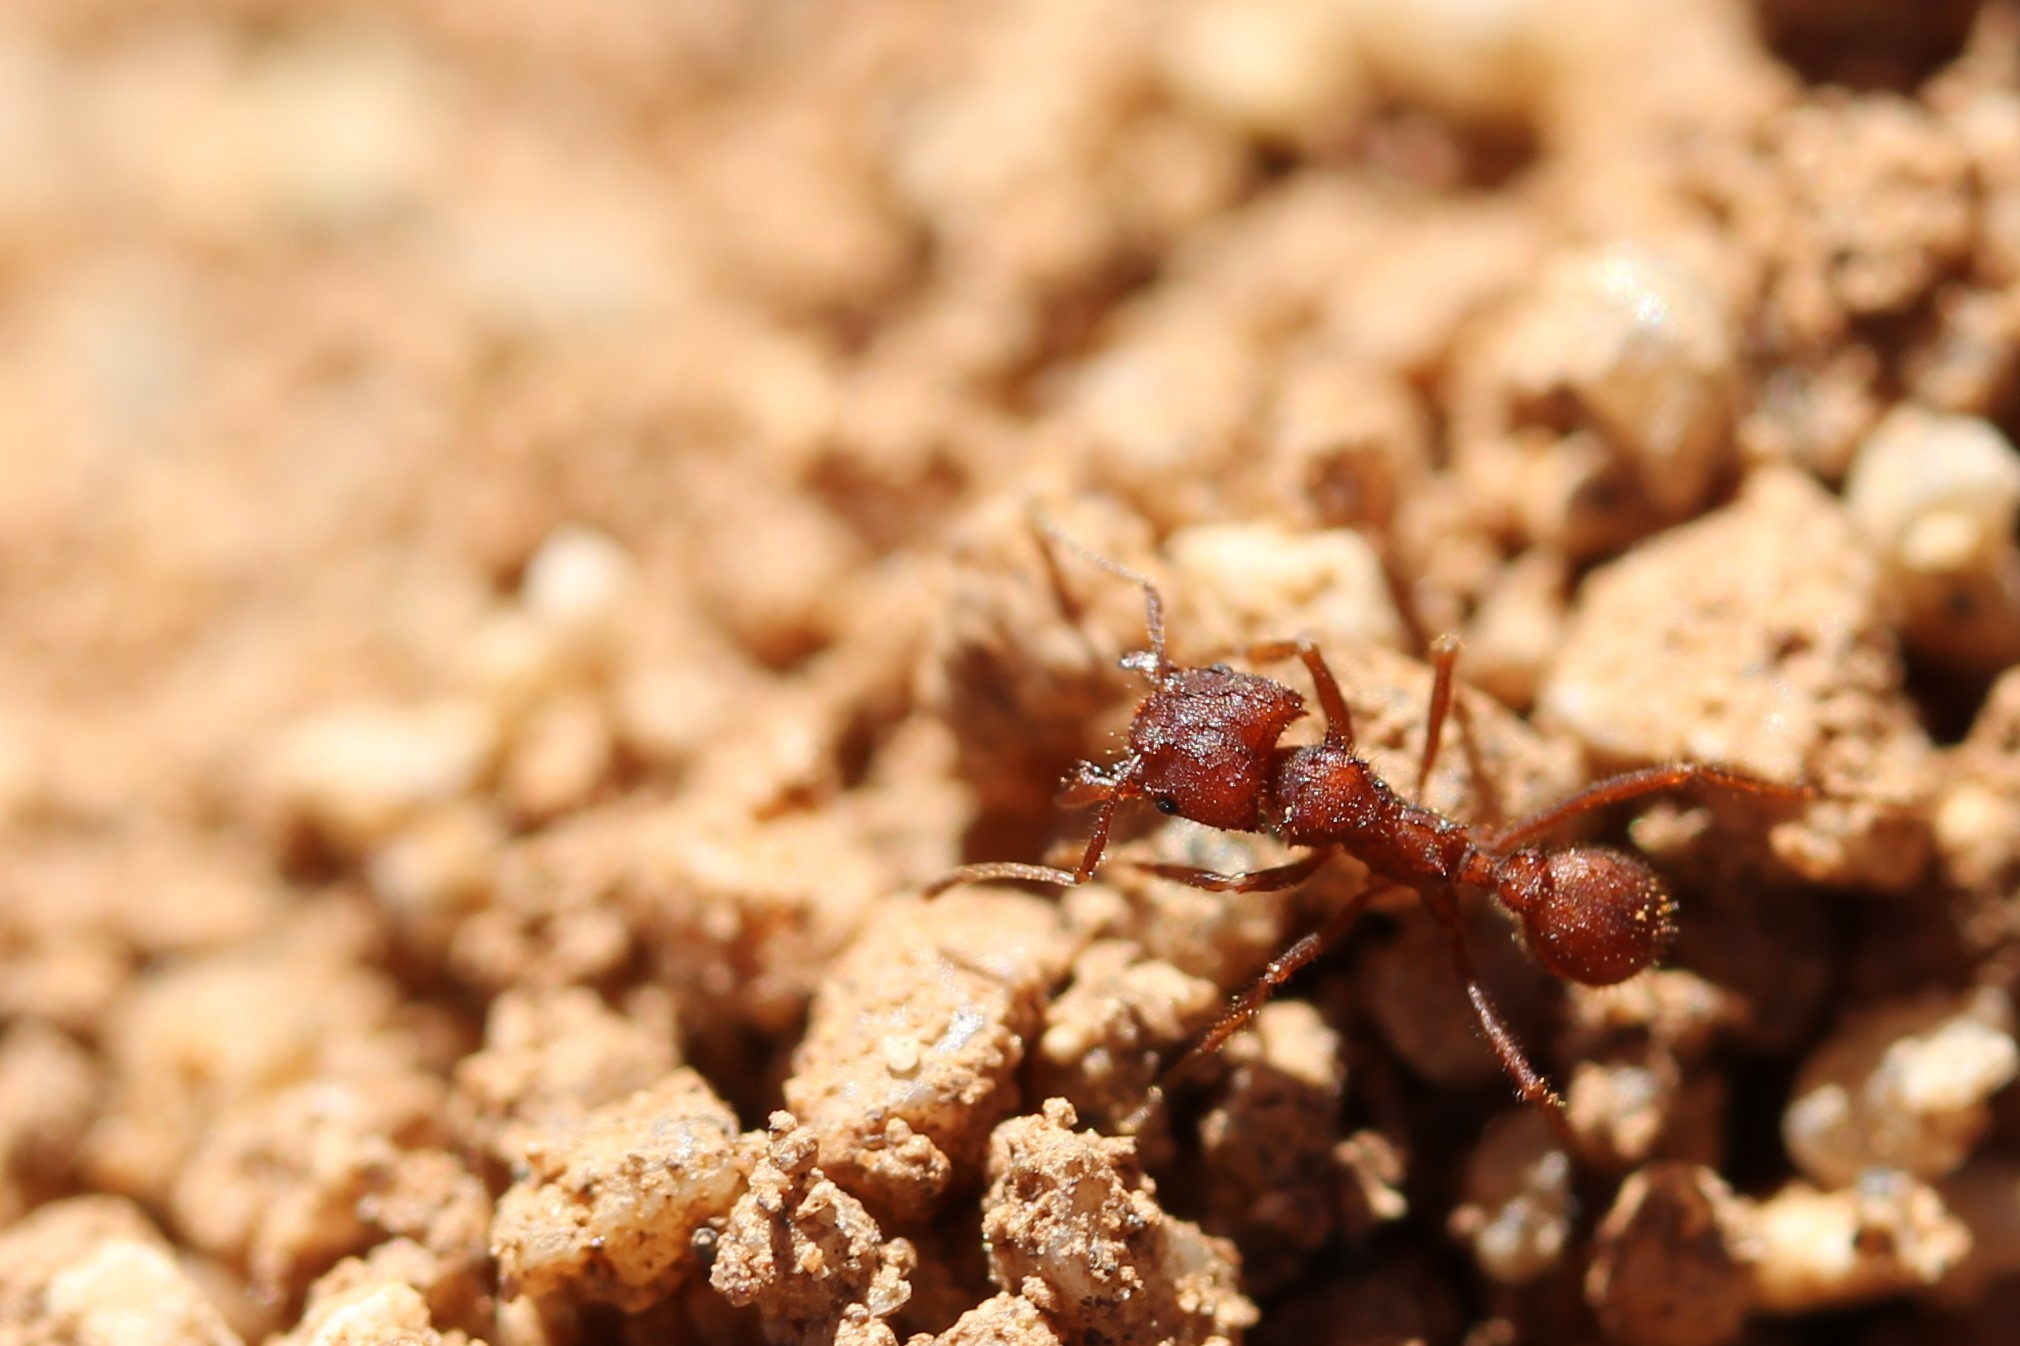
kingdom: Animalia
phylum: Arthropoda
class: Insecta
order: Hymenoptera
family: Formicidae
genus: Acromyrmex
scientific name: Acromyrmex versicolor
